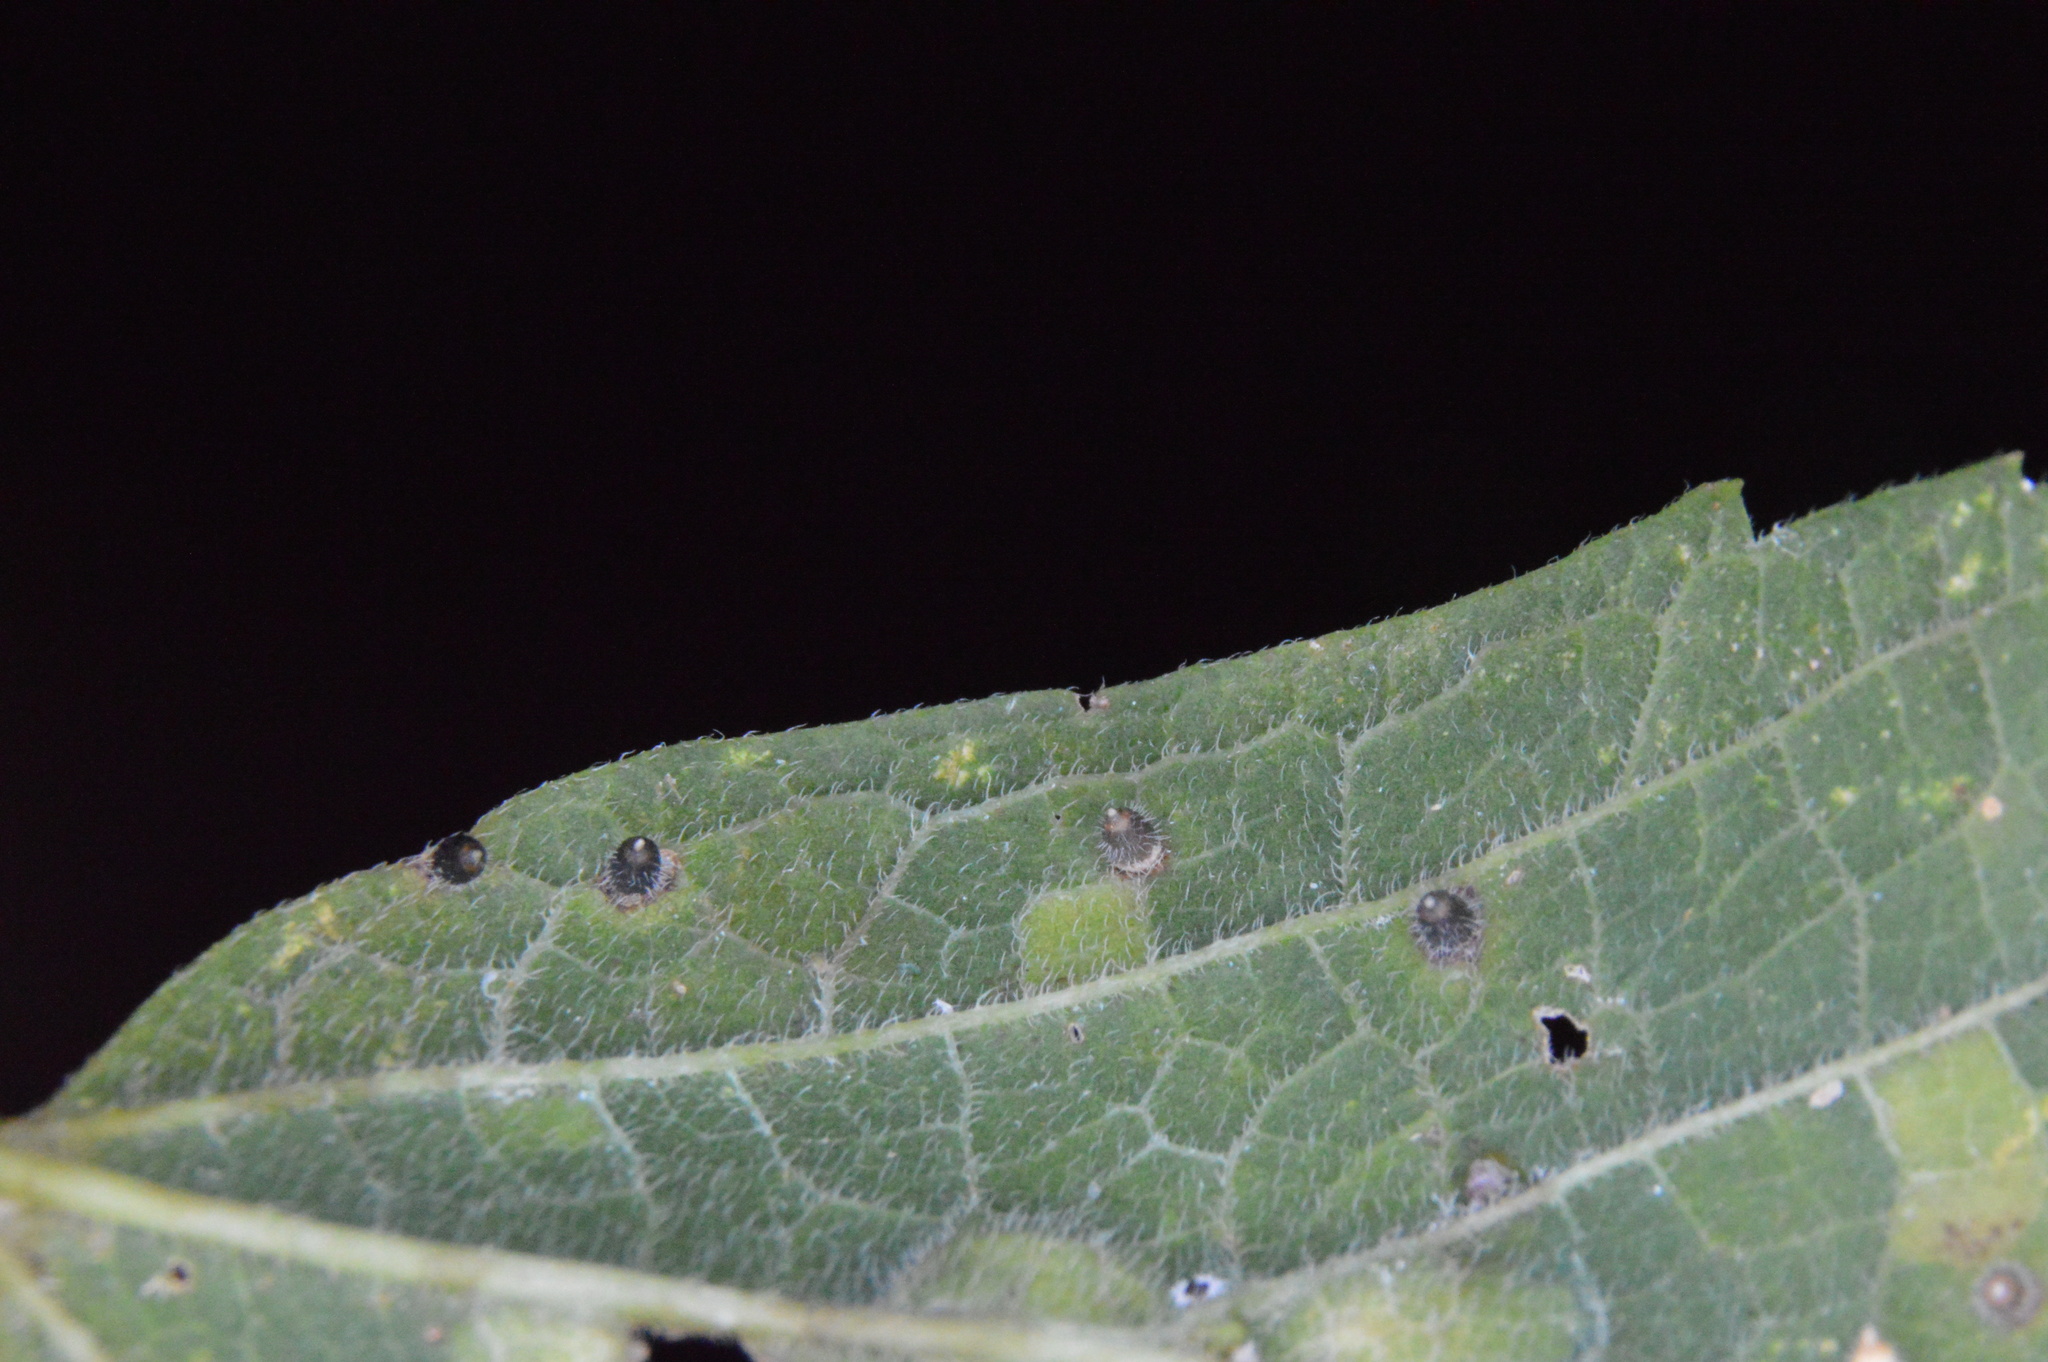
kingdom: Animalia
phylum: Arthropoda
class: Insecta
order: Diptera
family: Cecidomyiidae
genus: Celticecis
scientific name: Celticecis cupiformis
